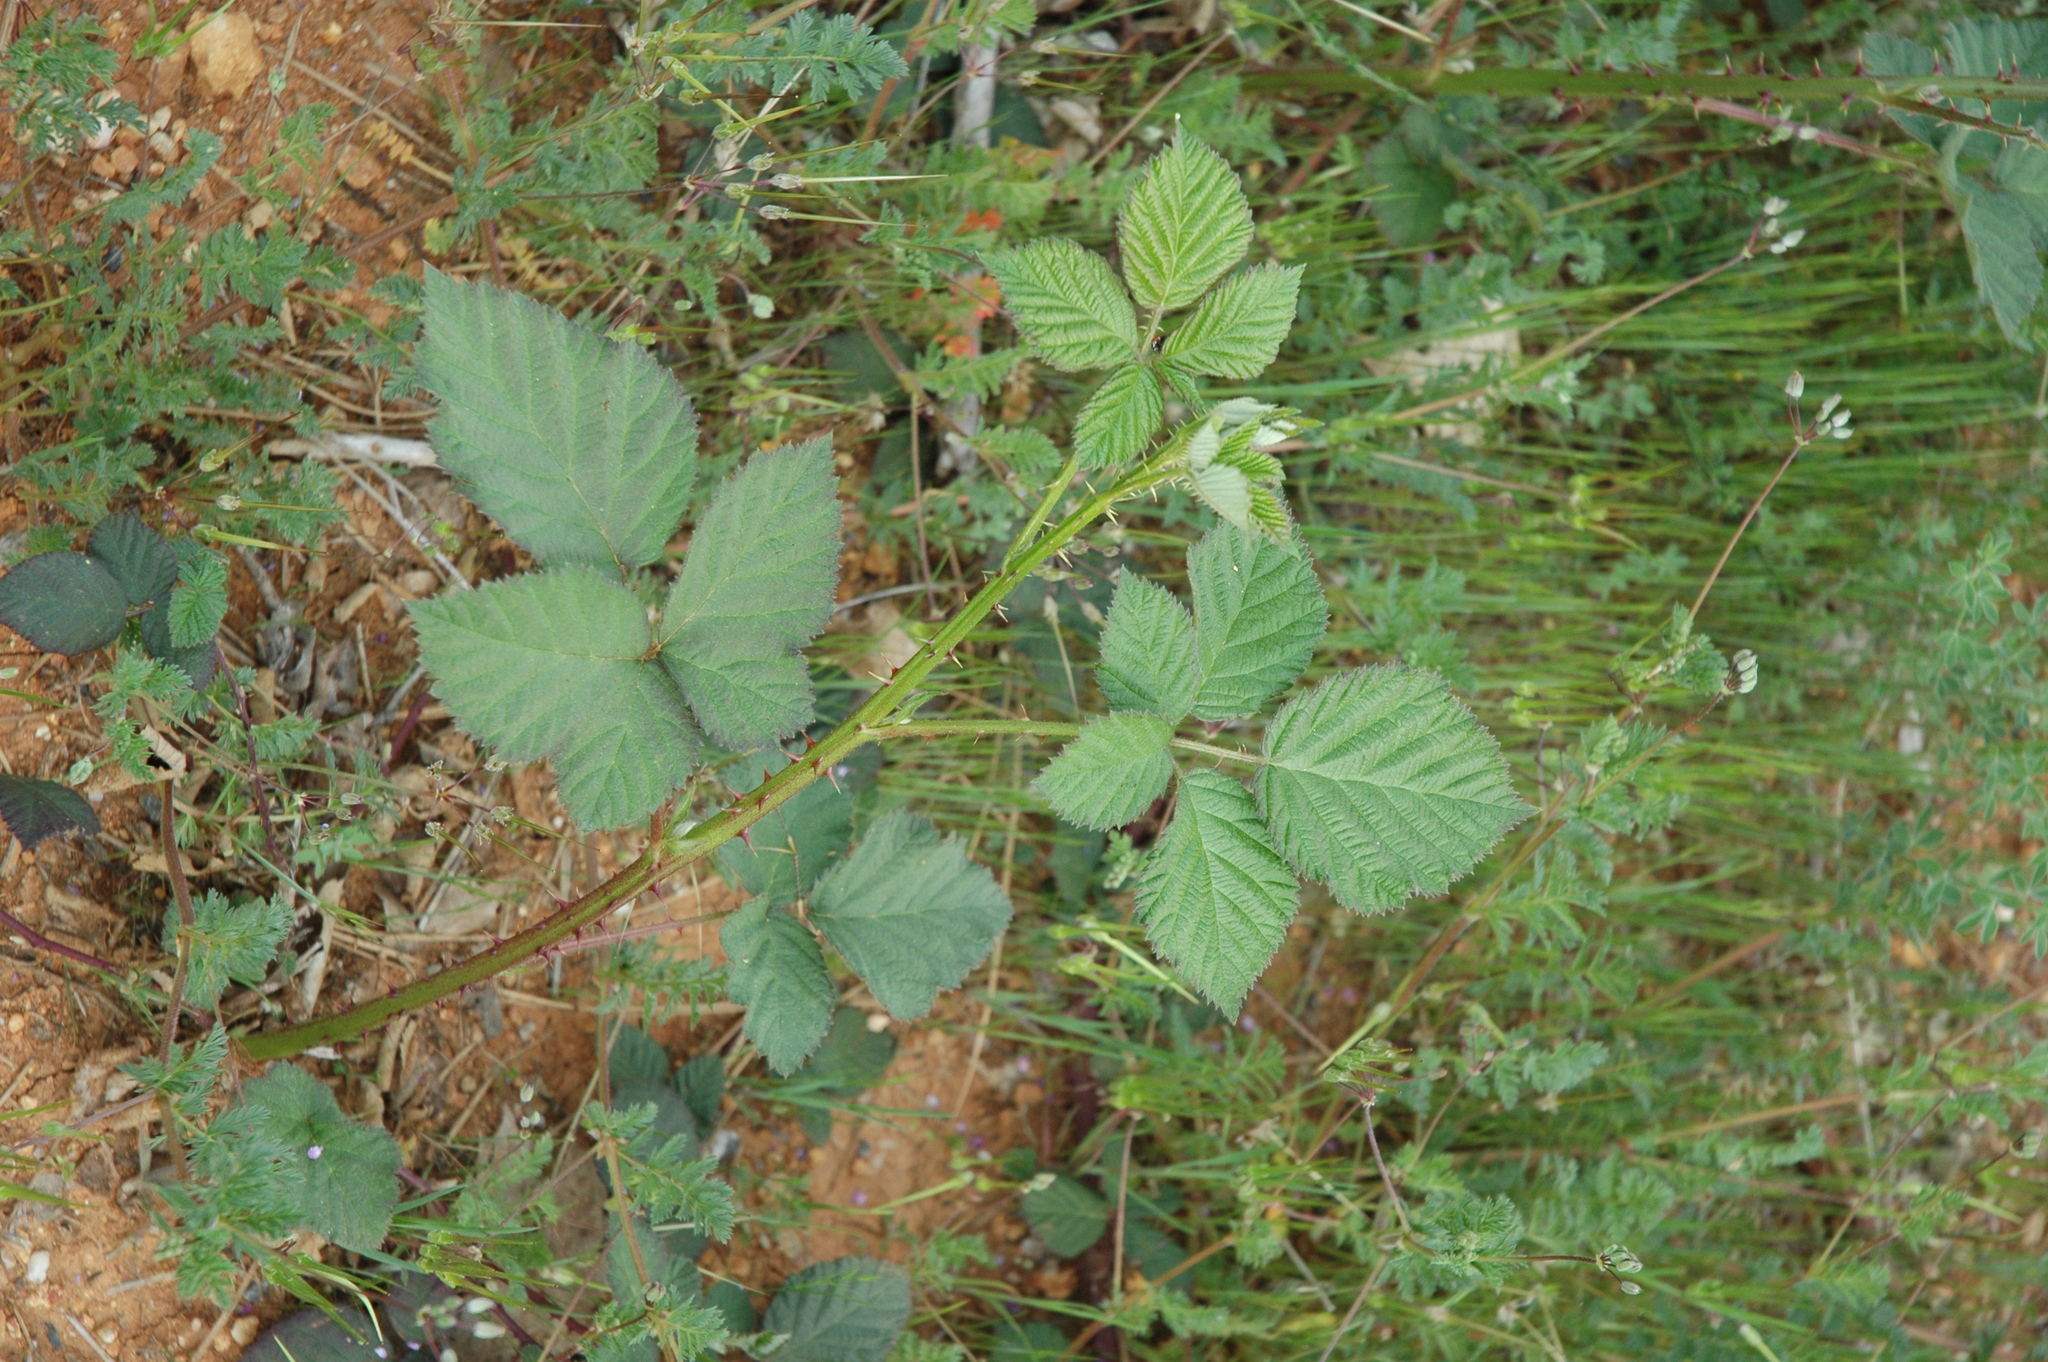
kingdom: Plantae
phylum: Tracheophyta
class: Magnoliopsida
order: Rosales
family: Rosaceae
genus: Rubus
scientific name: Rubus armeniacus
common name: Himalayan blackberry
